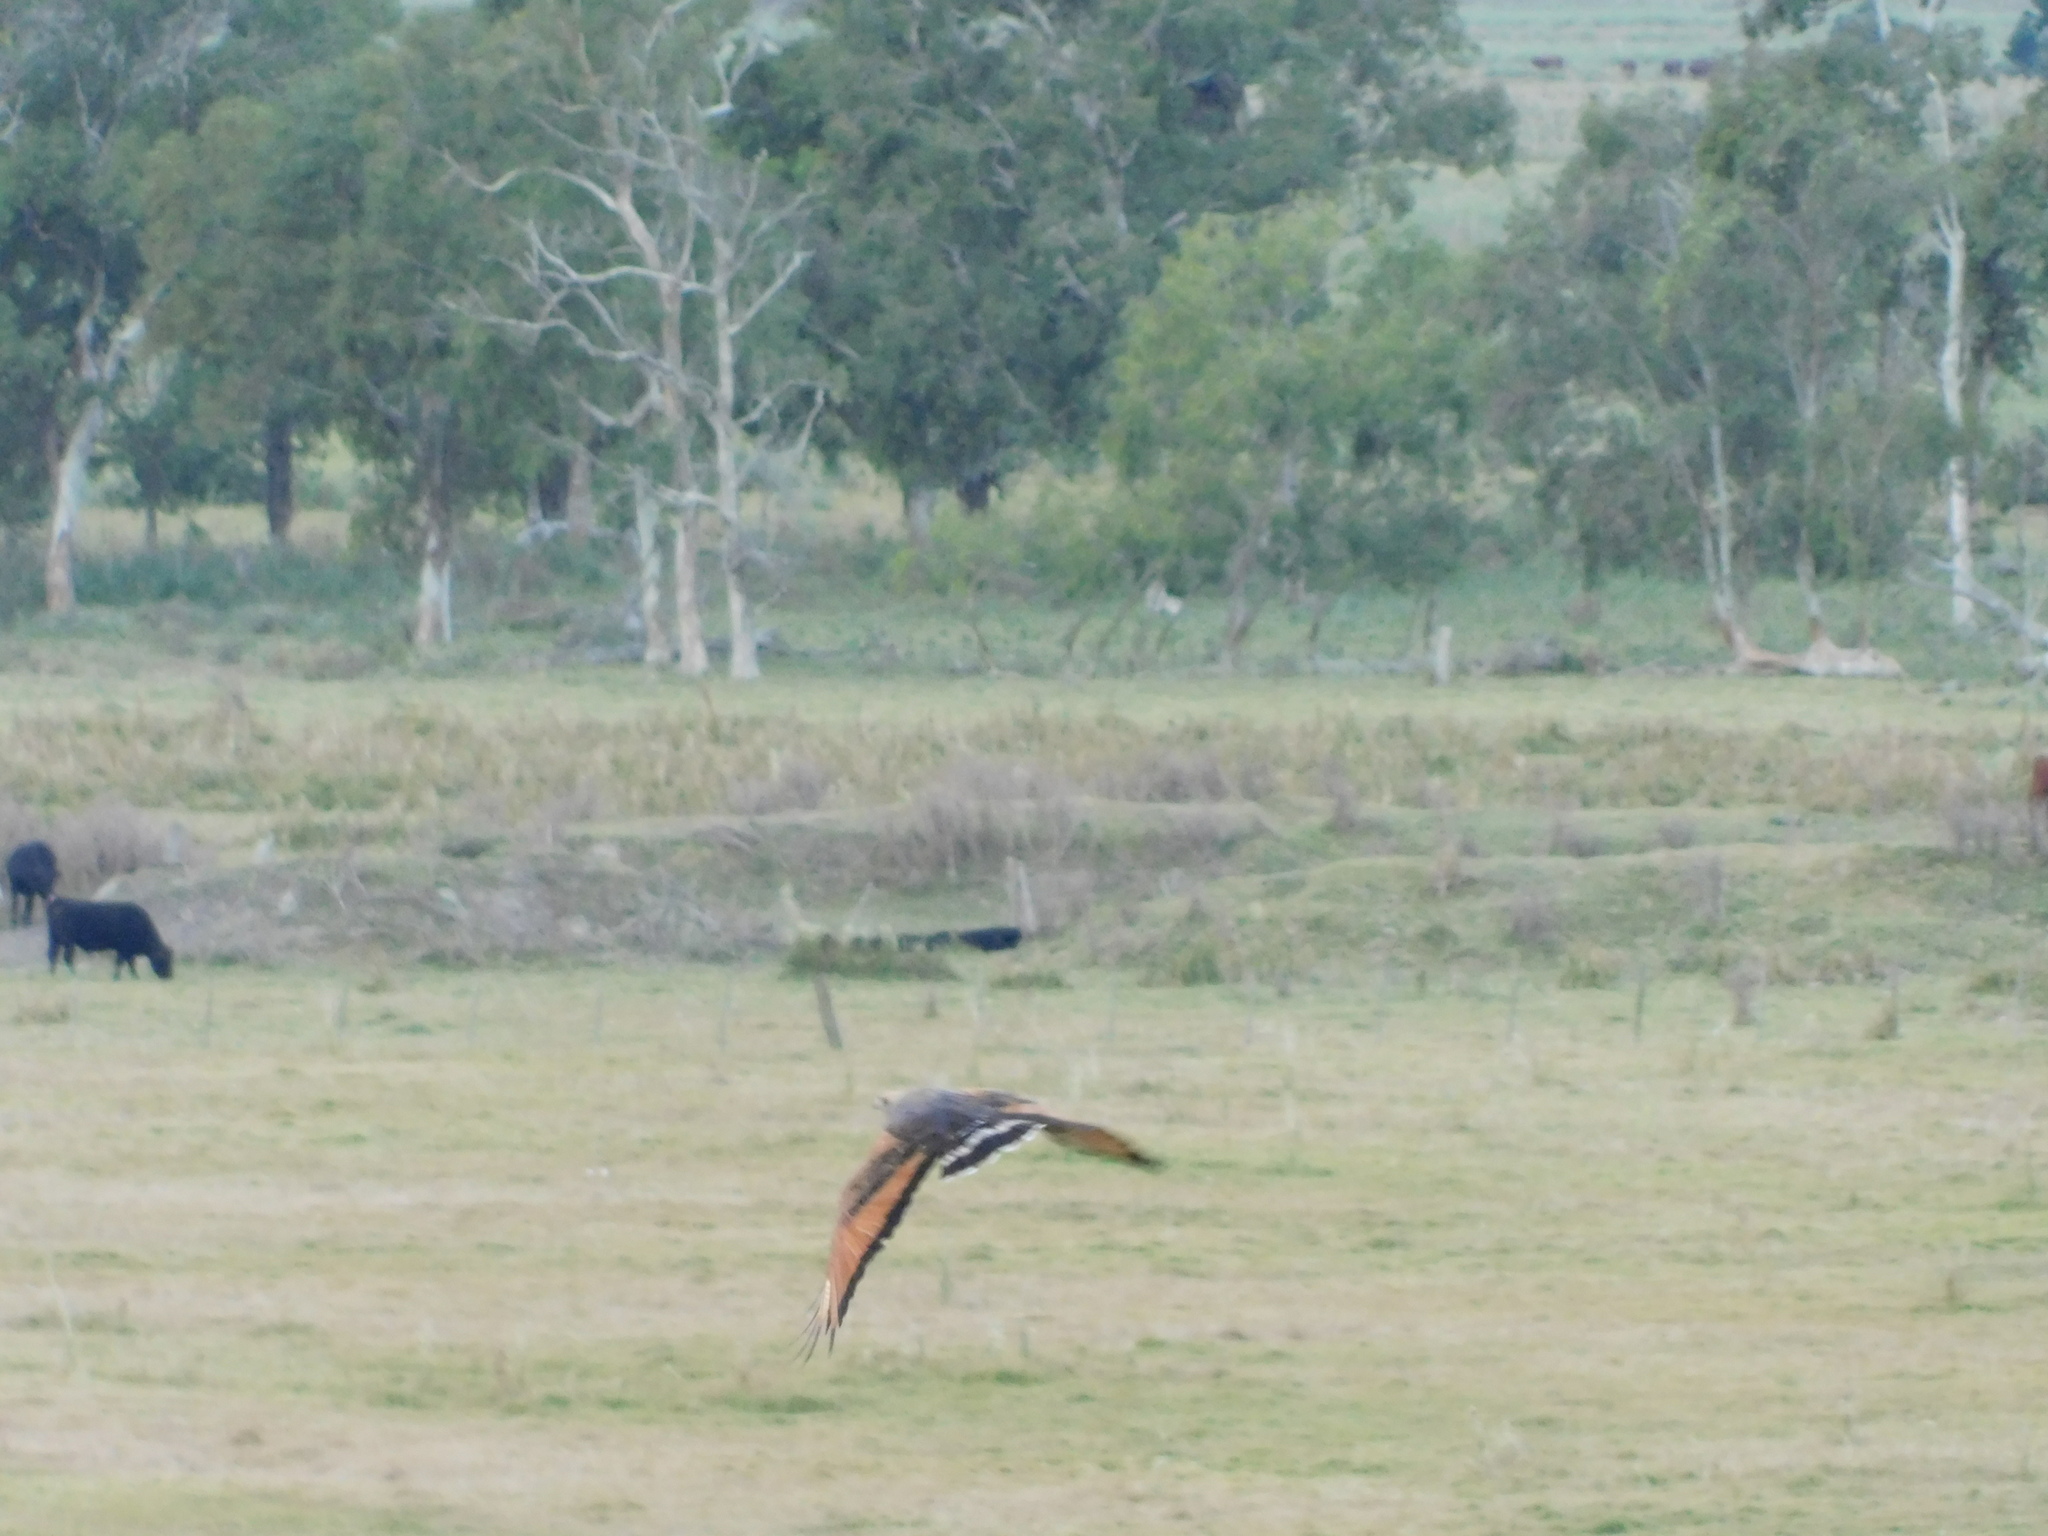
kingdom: Animalia
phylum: Chordata
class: Aves
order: Accipitriformes
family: Accipitridae
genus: Buteogallus
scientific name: Buteogallus meridionalis
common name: Savanna hawk
